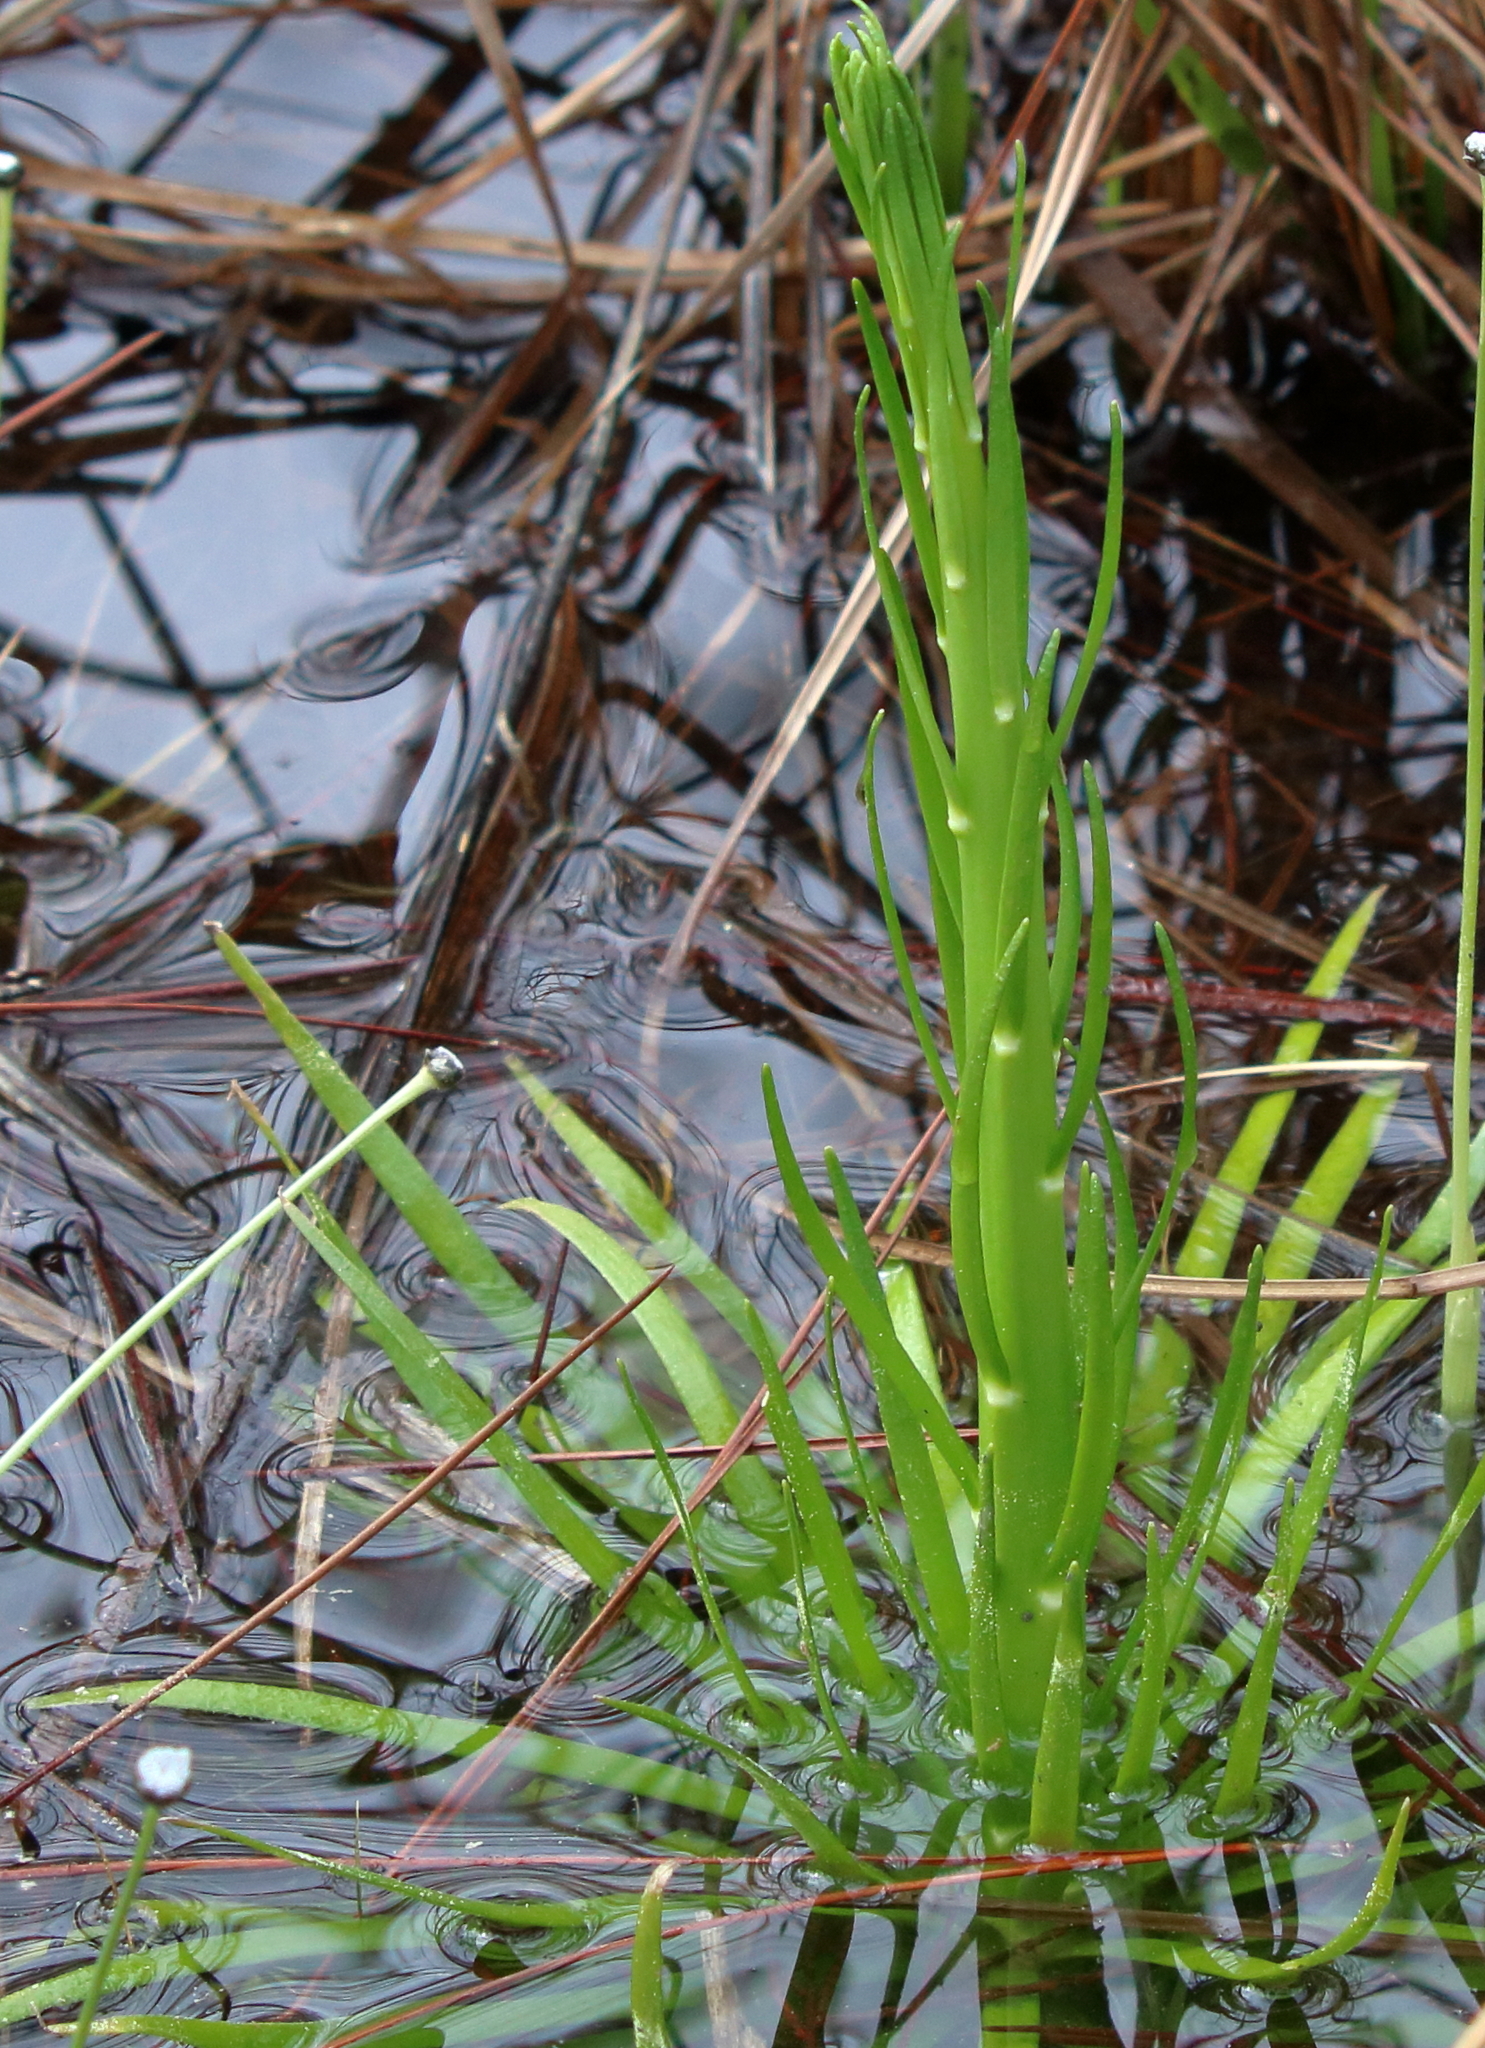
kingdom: Plantae
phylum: Tracheophyta
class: Magnoliopsida
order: Fabales
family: Polygalaceae
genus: Polygala
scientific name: Polygala cymosa
